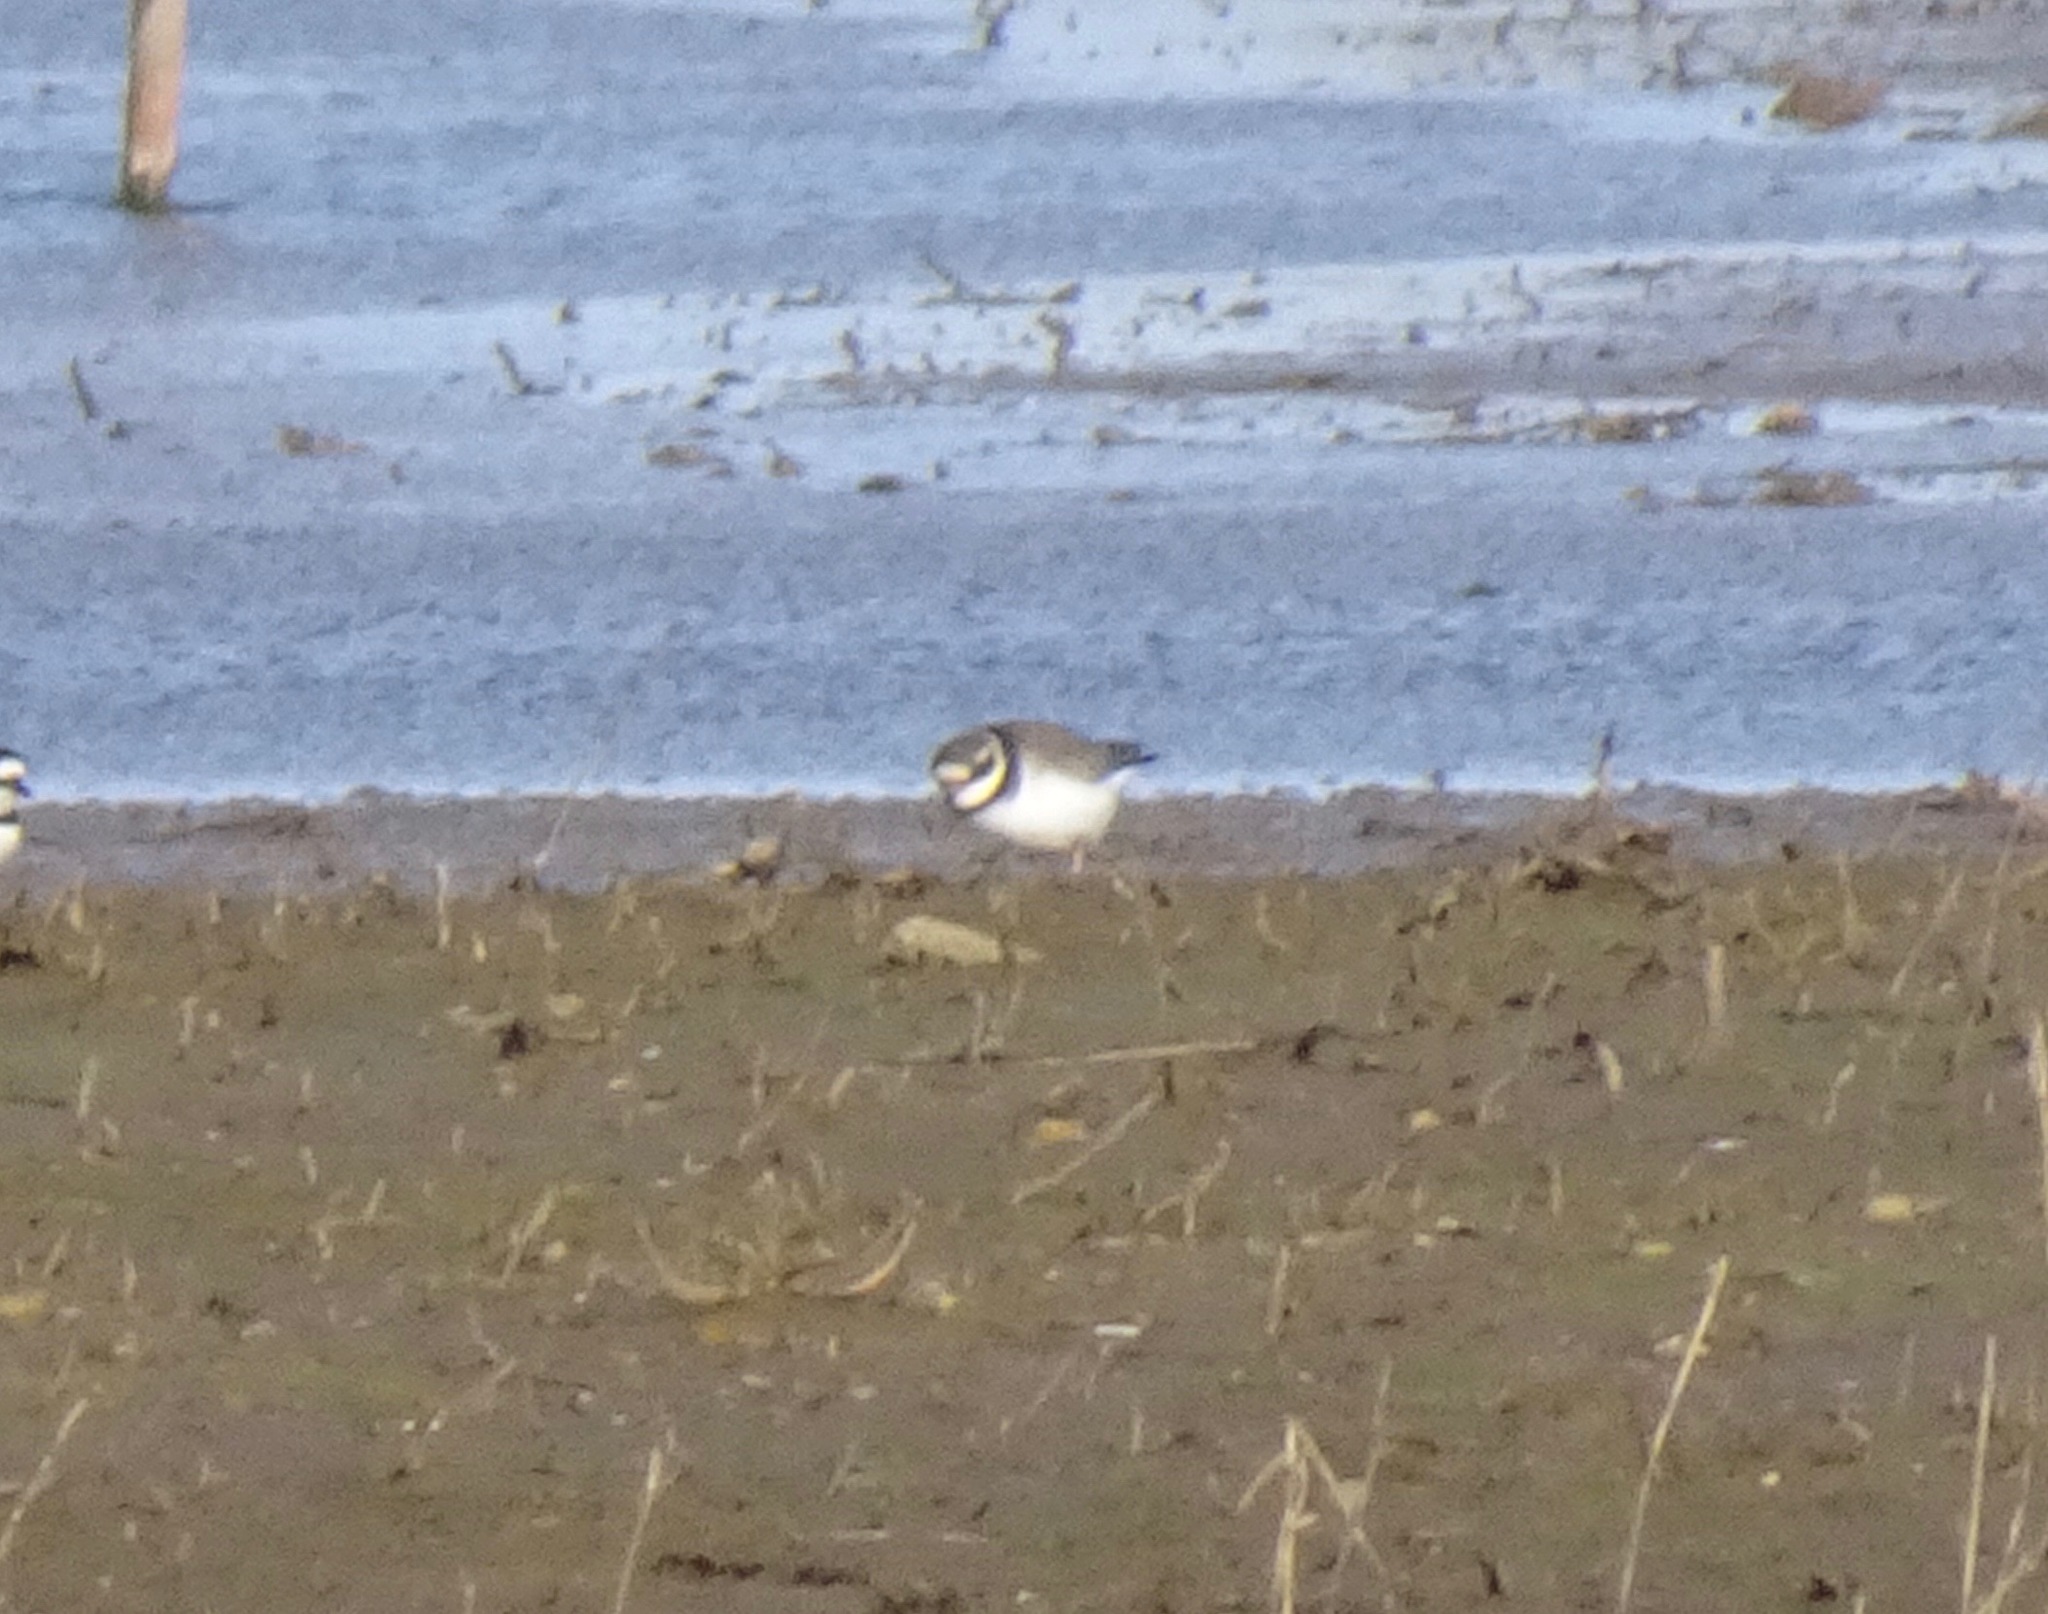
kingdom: Animalia
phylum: Chordata
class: Aves
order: Charadriiformes
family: Charadriidae
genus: Charadrius
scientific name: Charadrius hiaticula
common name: Common ringed plover
